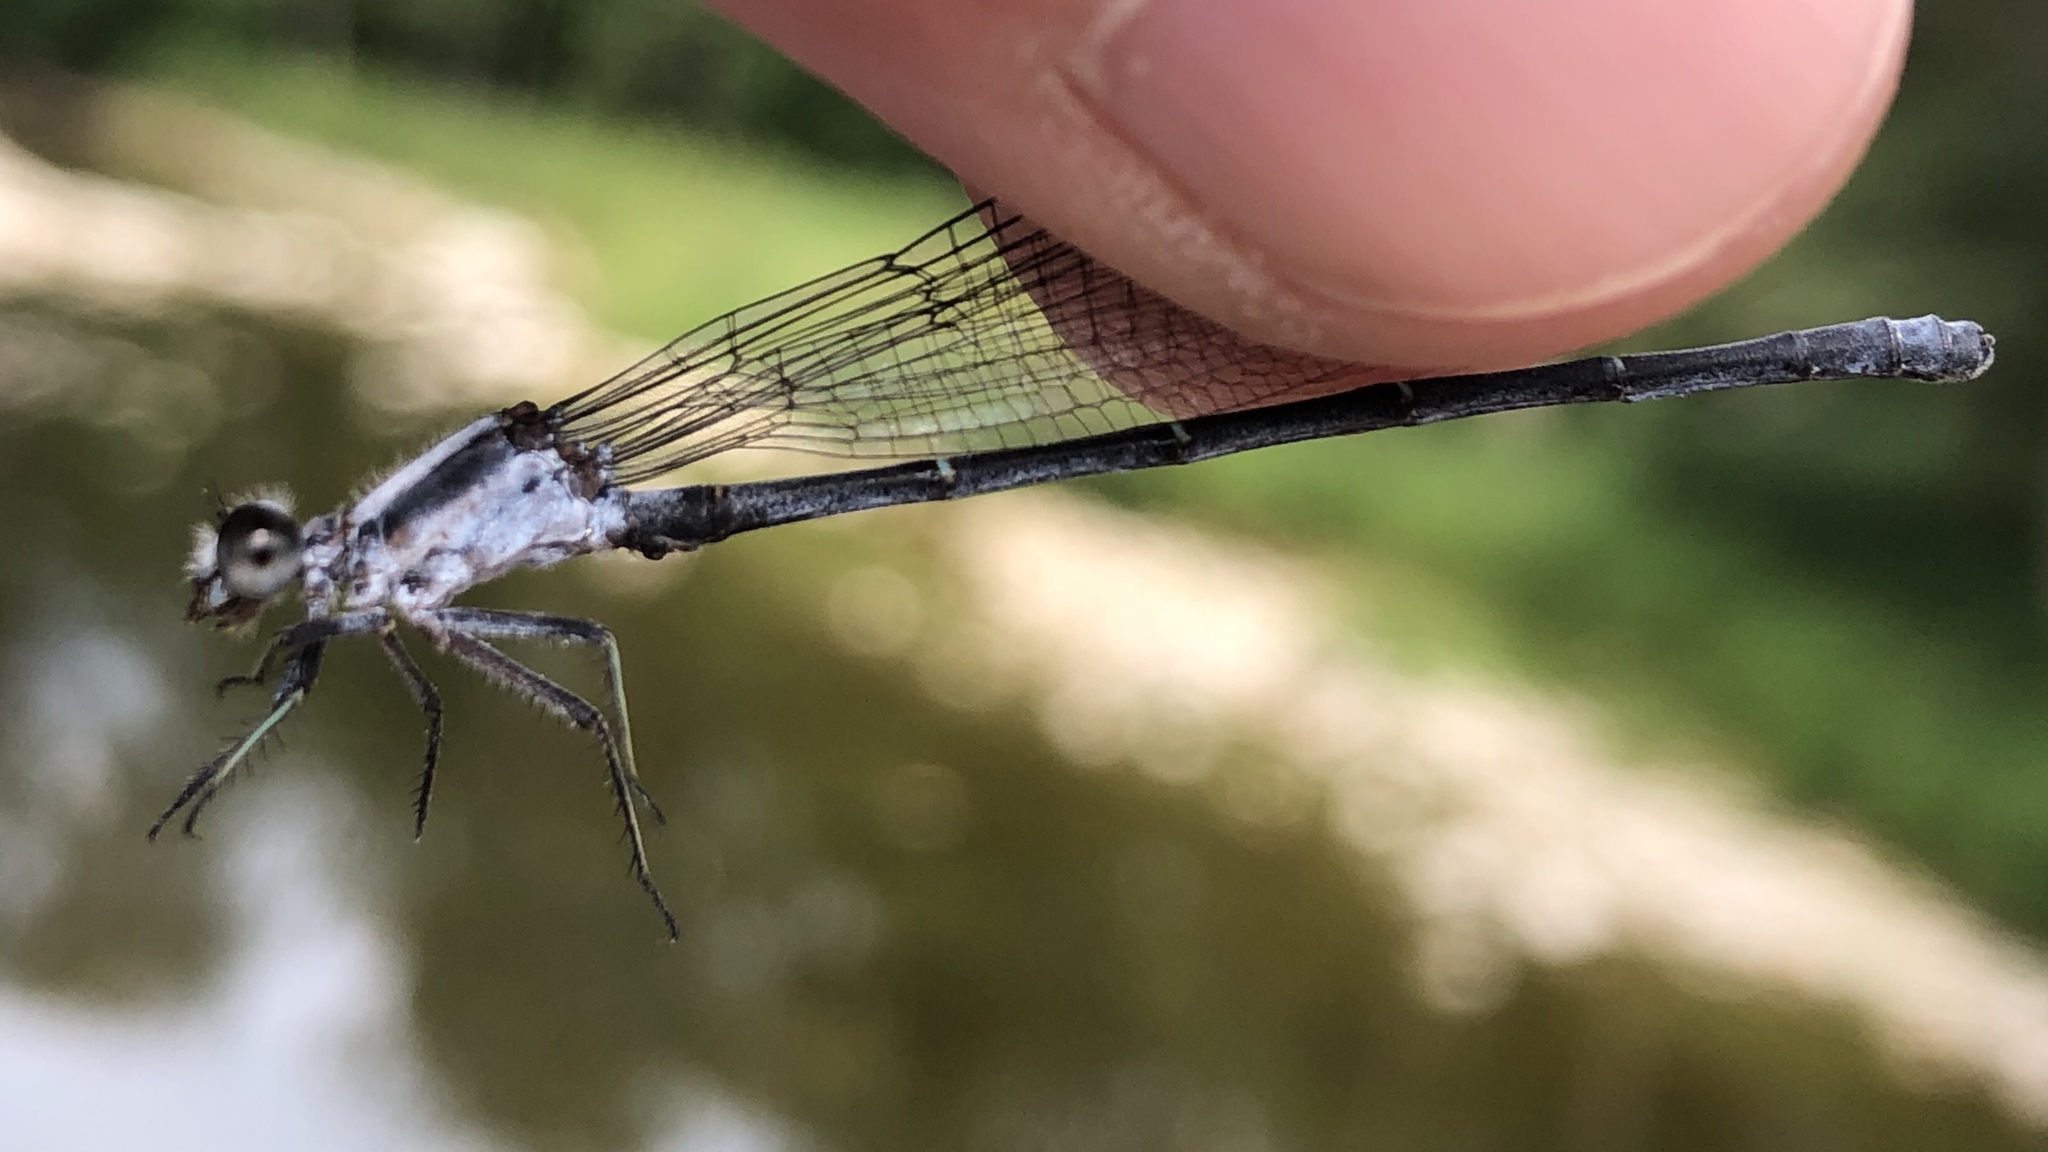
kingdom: Animalia
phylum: Arthropoda
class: Insecta
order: Odonata
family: Coenagrionidae
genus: Argia
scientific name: Argia moesta
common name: Powdered dancer
